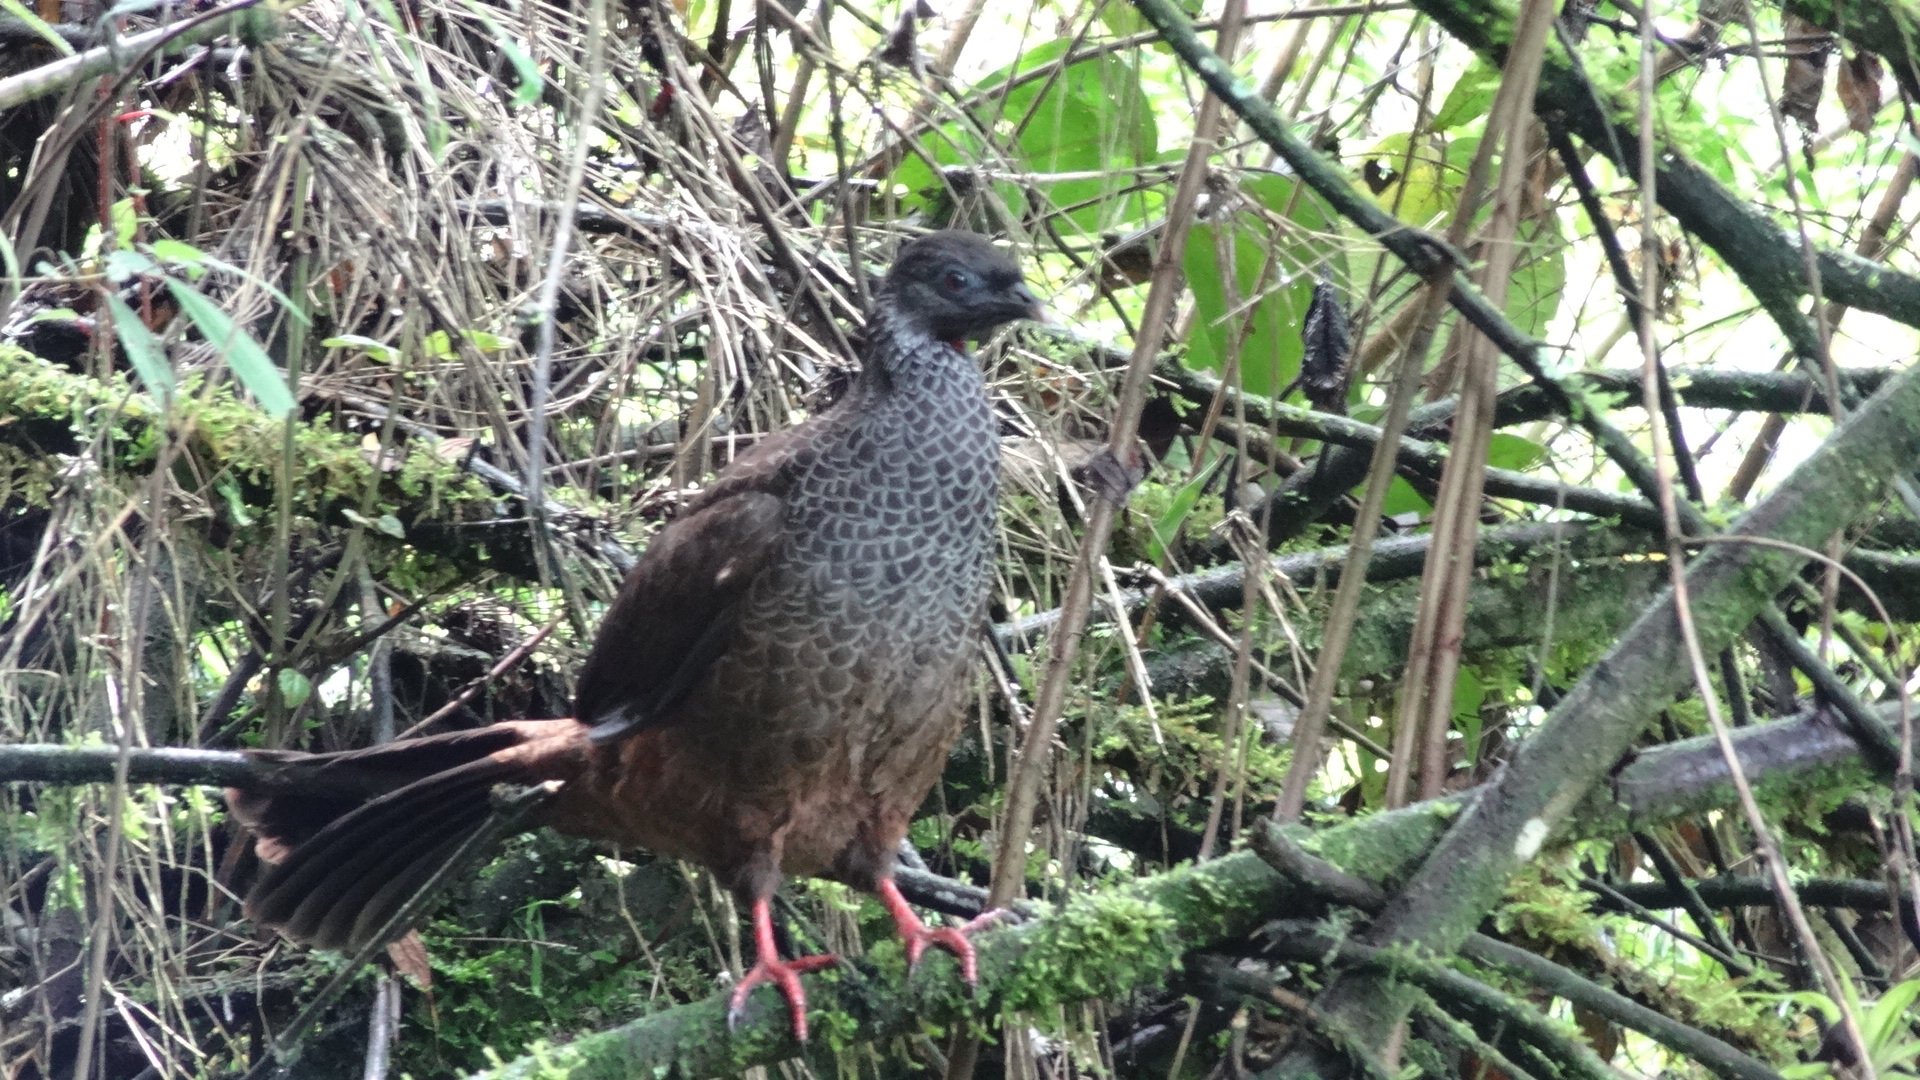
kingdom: Animalia
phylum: Chordata
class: Aves
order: Galliformes
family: Cracidae
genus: Penelope
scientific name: Penelope montagnii
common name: Andean guan
